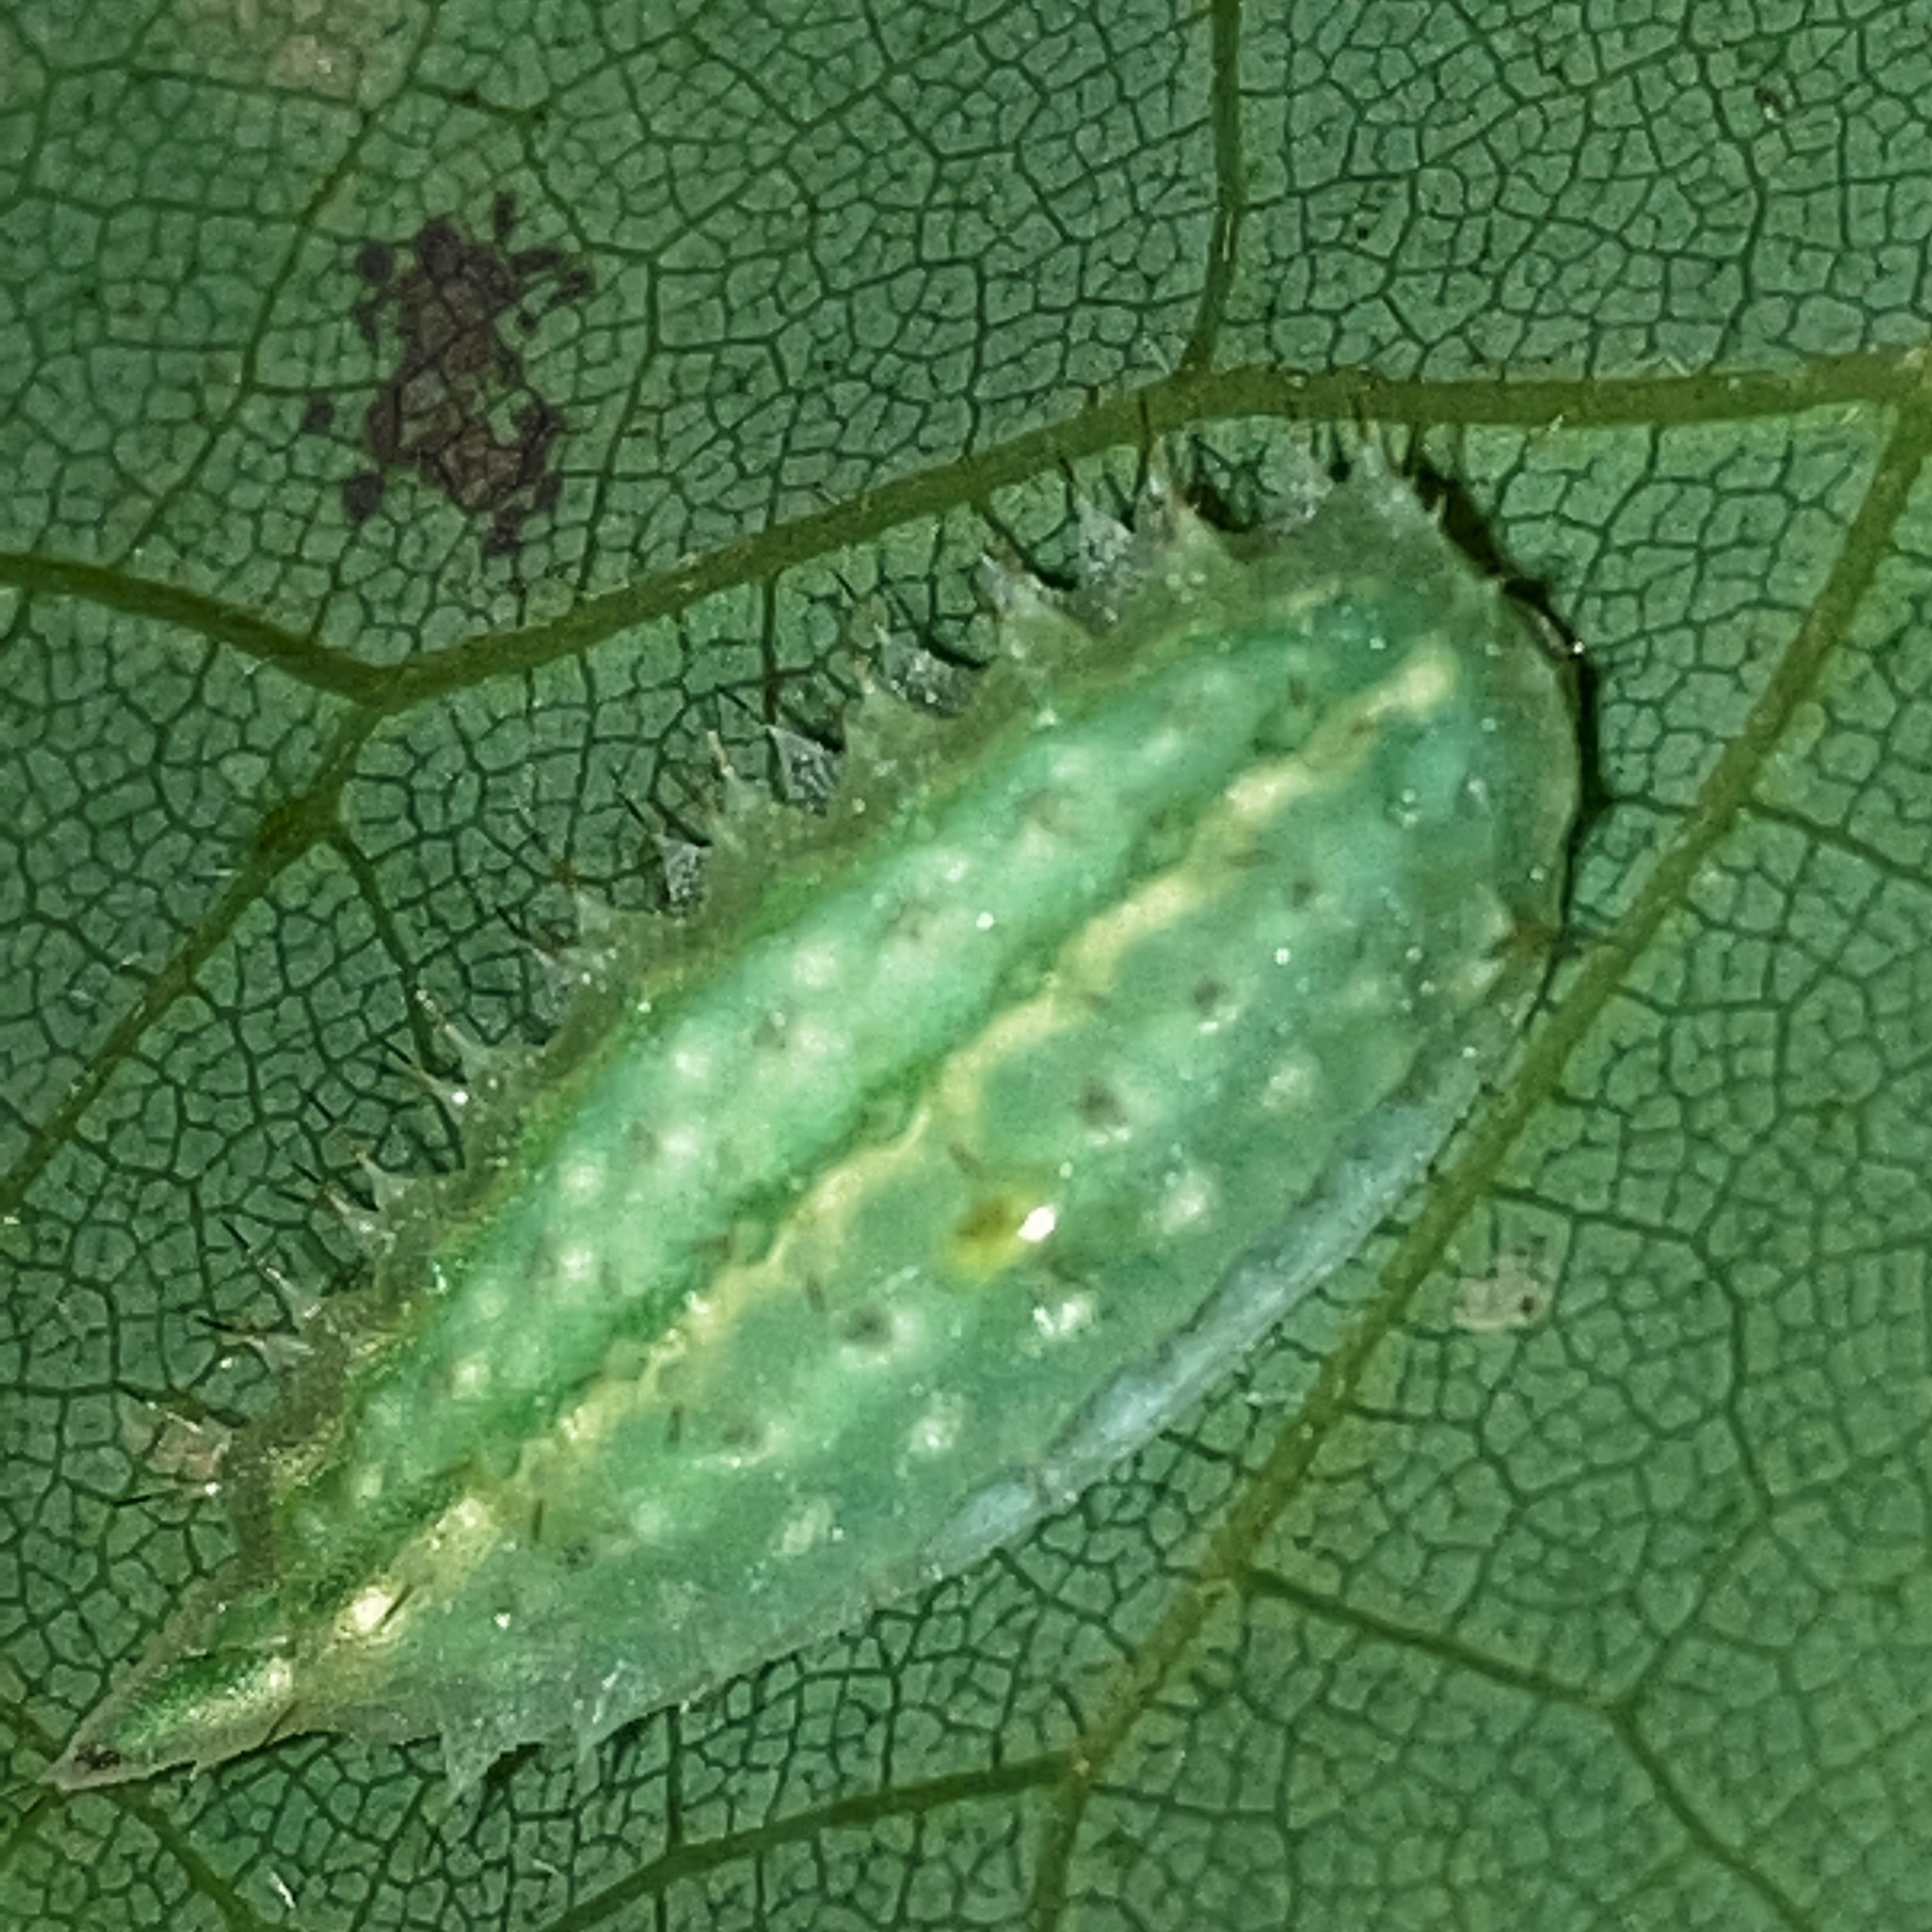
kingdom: Animalia
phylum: Arthropoda
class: Insecta
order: Lepidoptera
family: Limacodidae
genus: Packardia
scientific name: Packardia geminata
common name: Jeweled tailed slug moth
